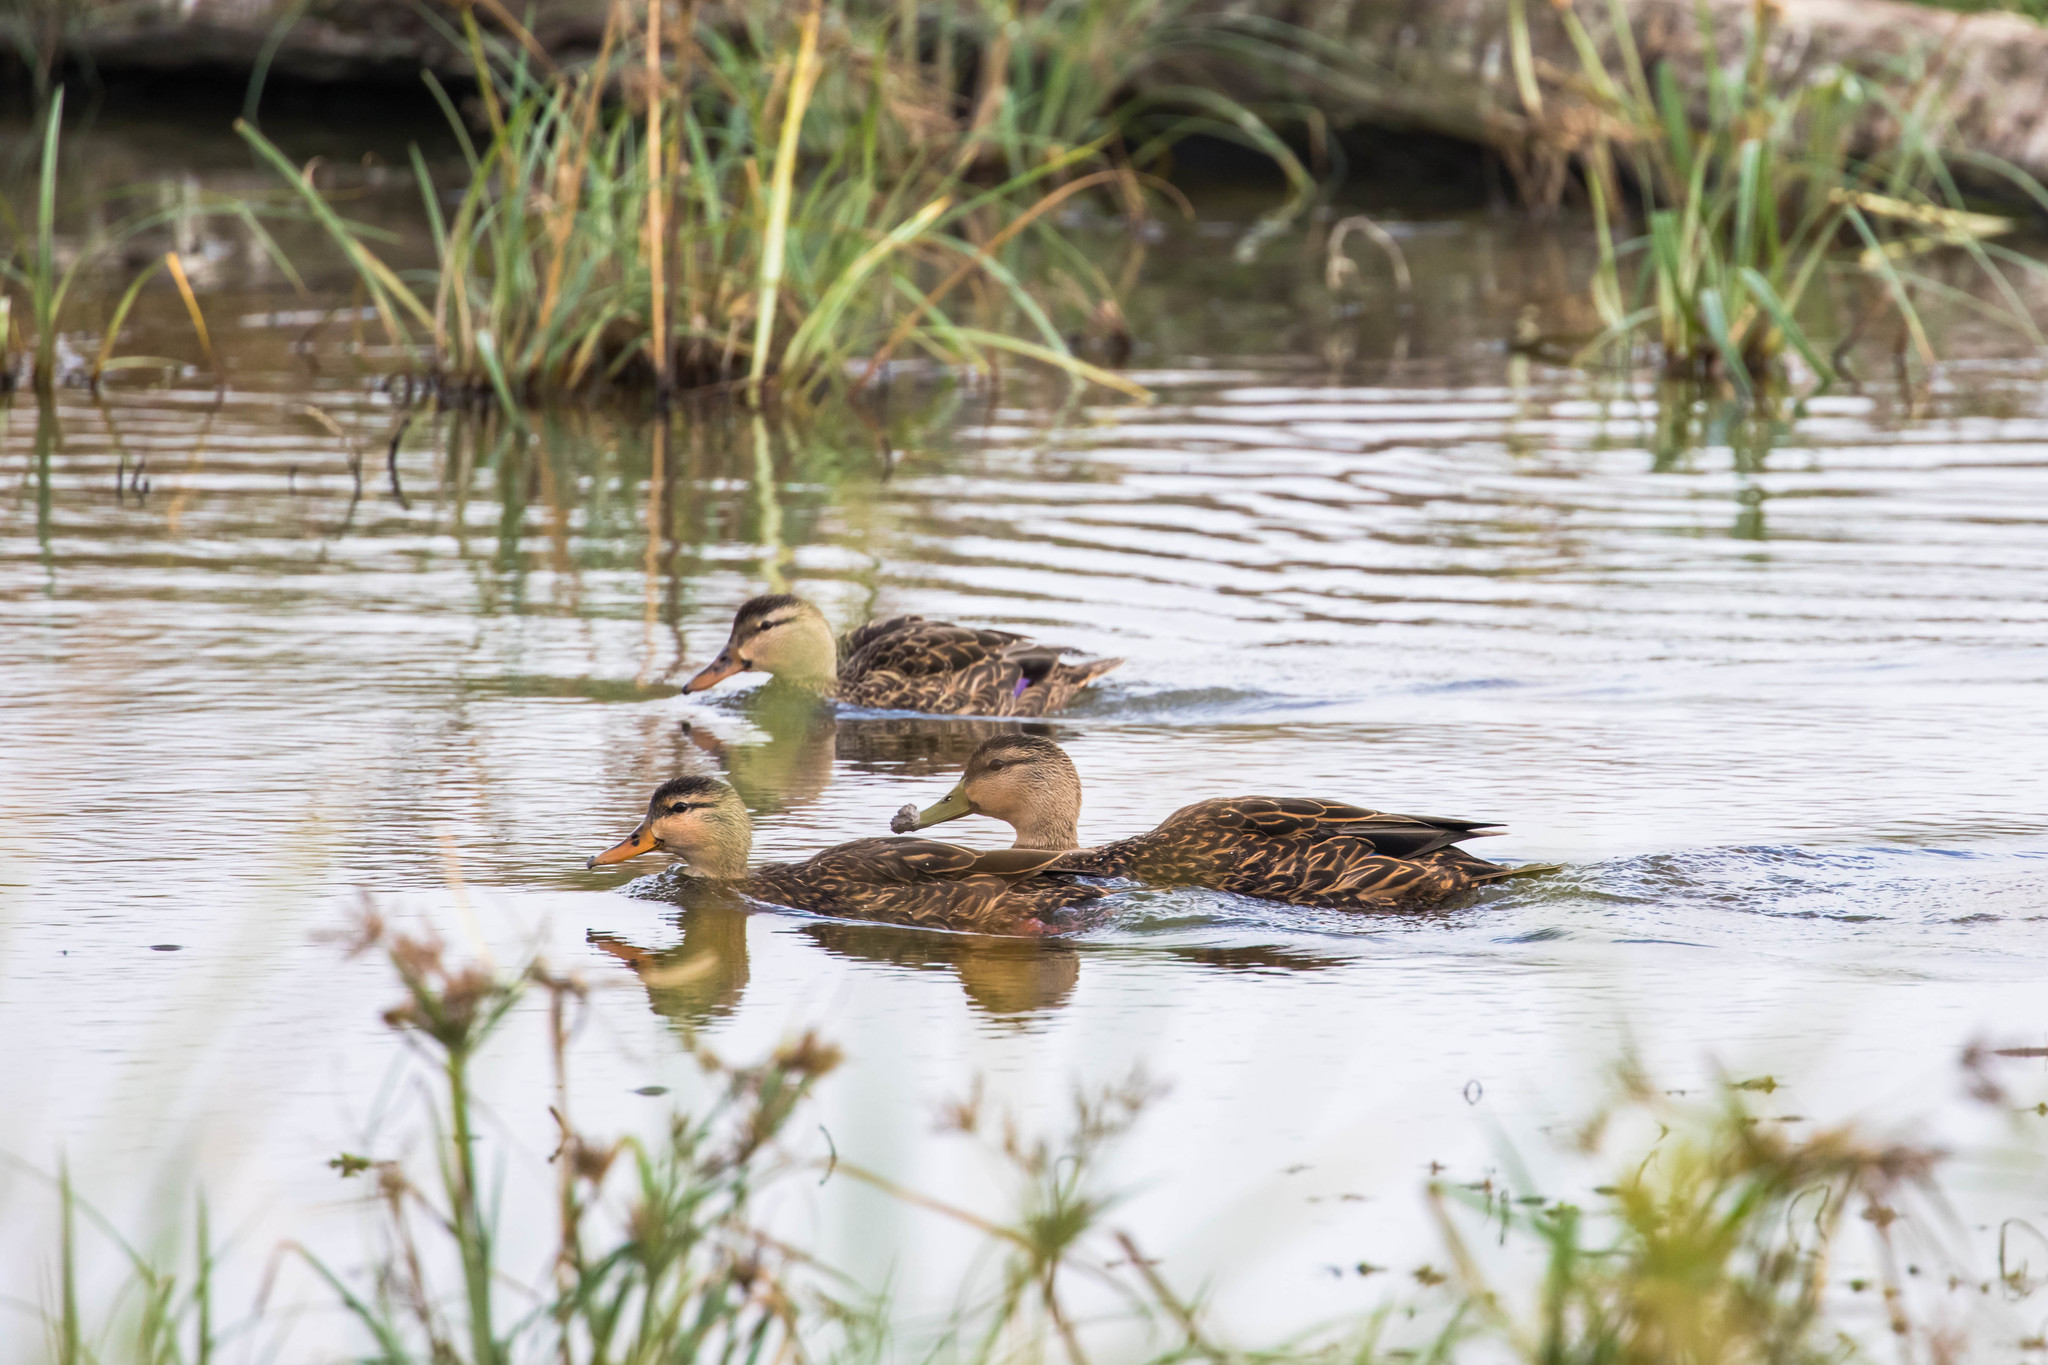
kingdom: Animalia
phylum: Chordata
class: Aves
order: Anseriformes
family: Anatidae
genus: Anas
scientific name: Anas fulvigula
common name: Mottled duck
